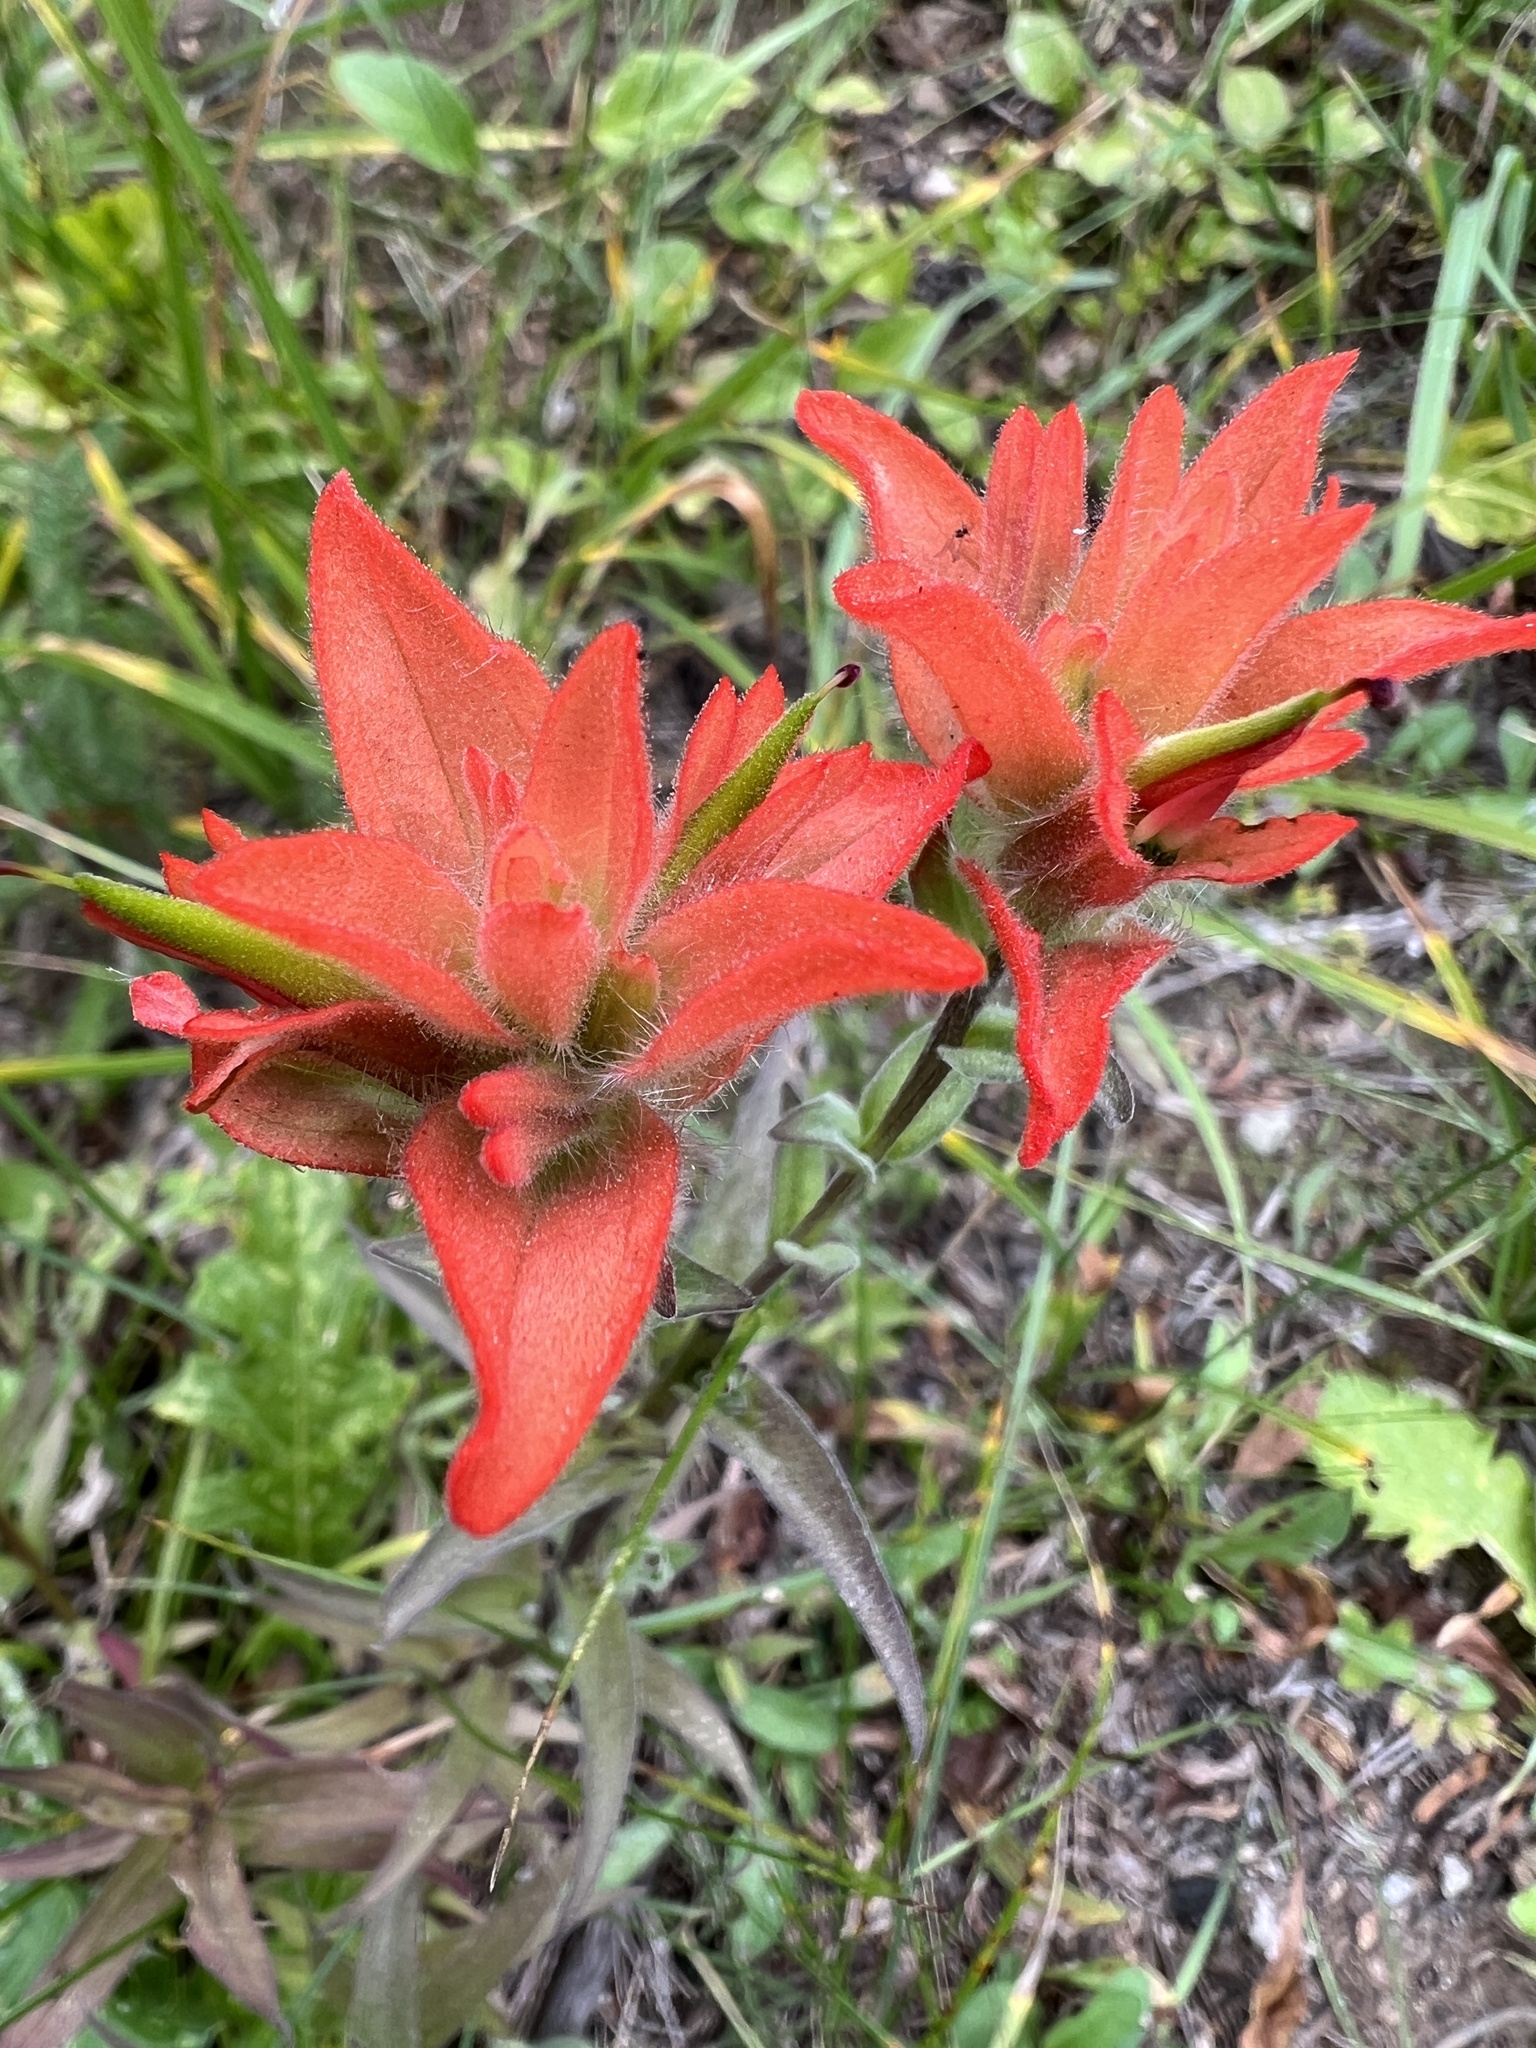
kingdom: Plantae
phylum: Tracheophyta
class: Magnoliopsida
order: Lamiales
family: Orobanchaceae
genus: Castilleja
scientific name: Castilleja miniata
